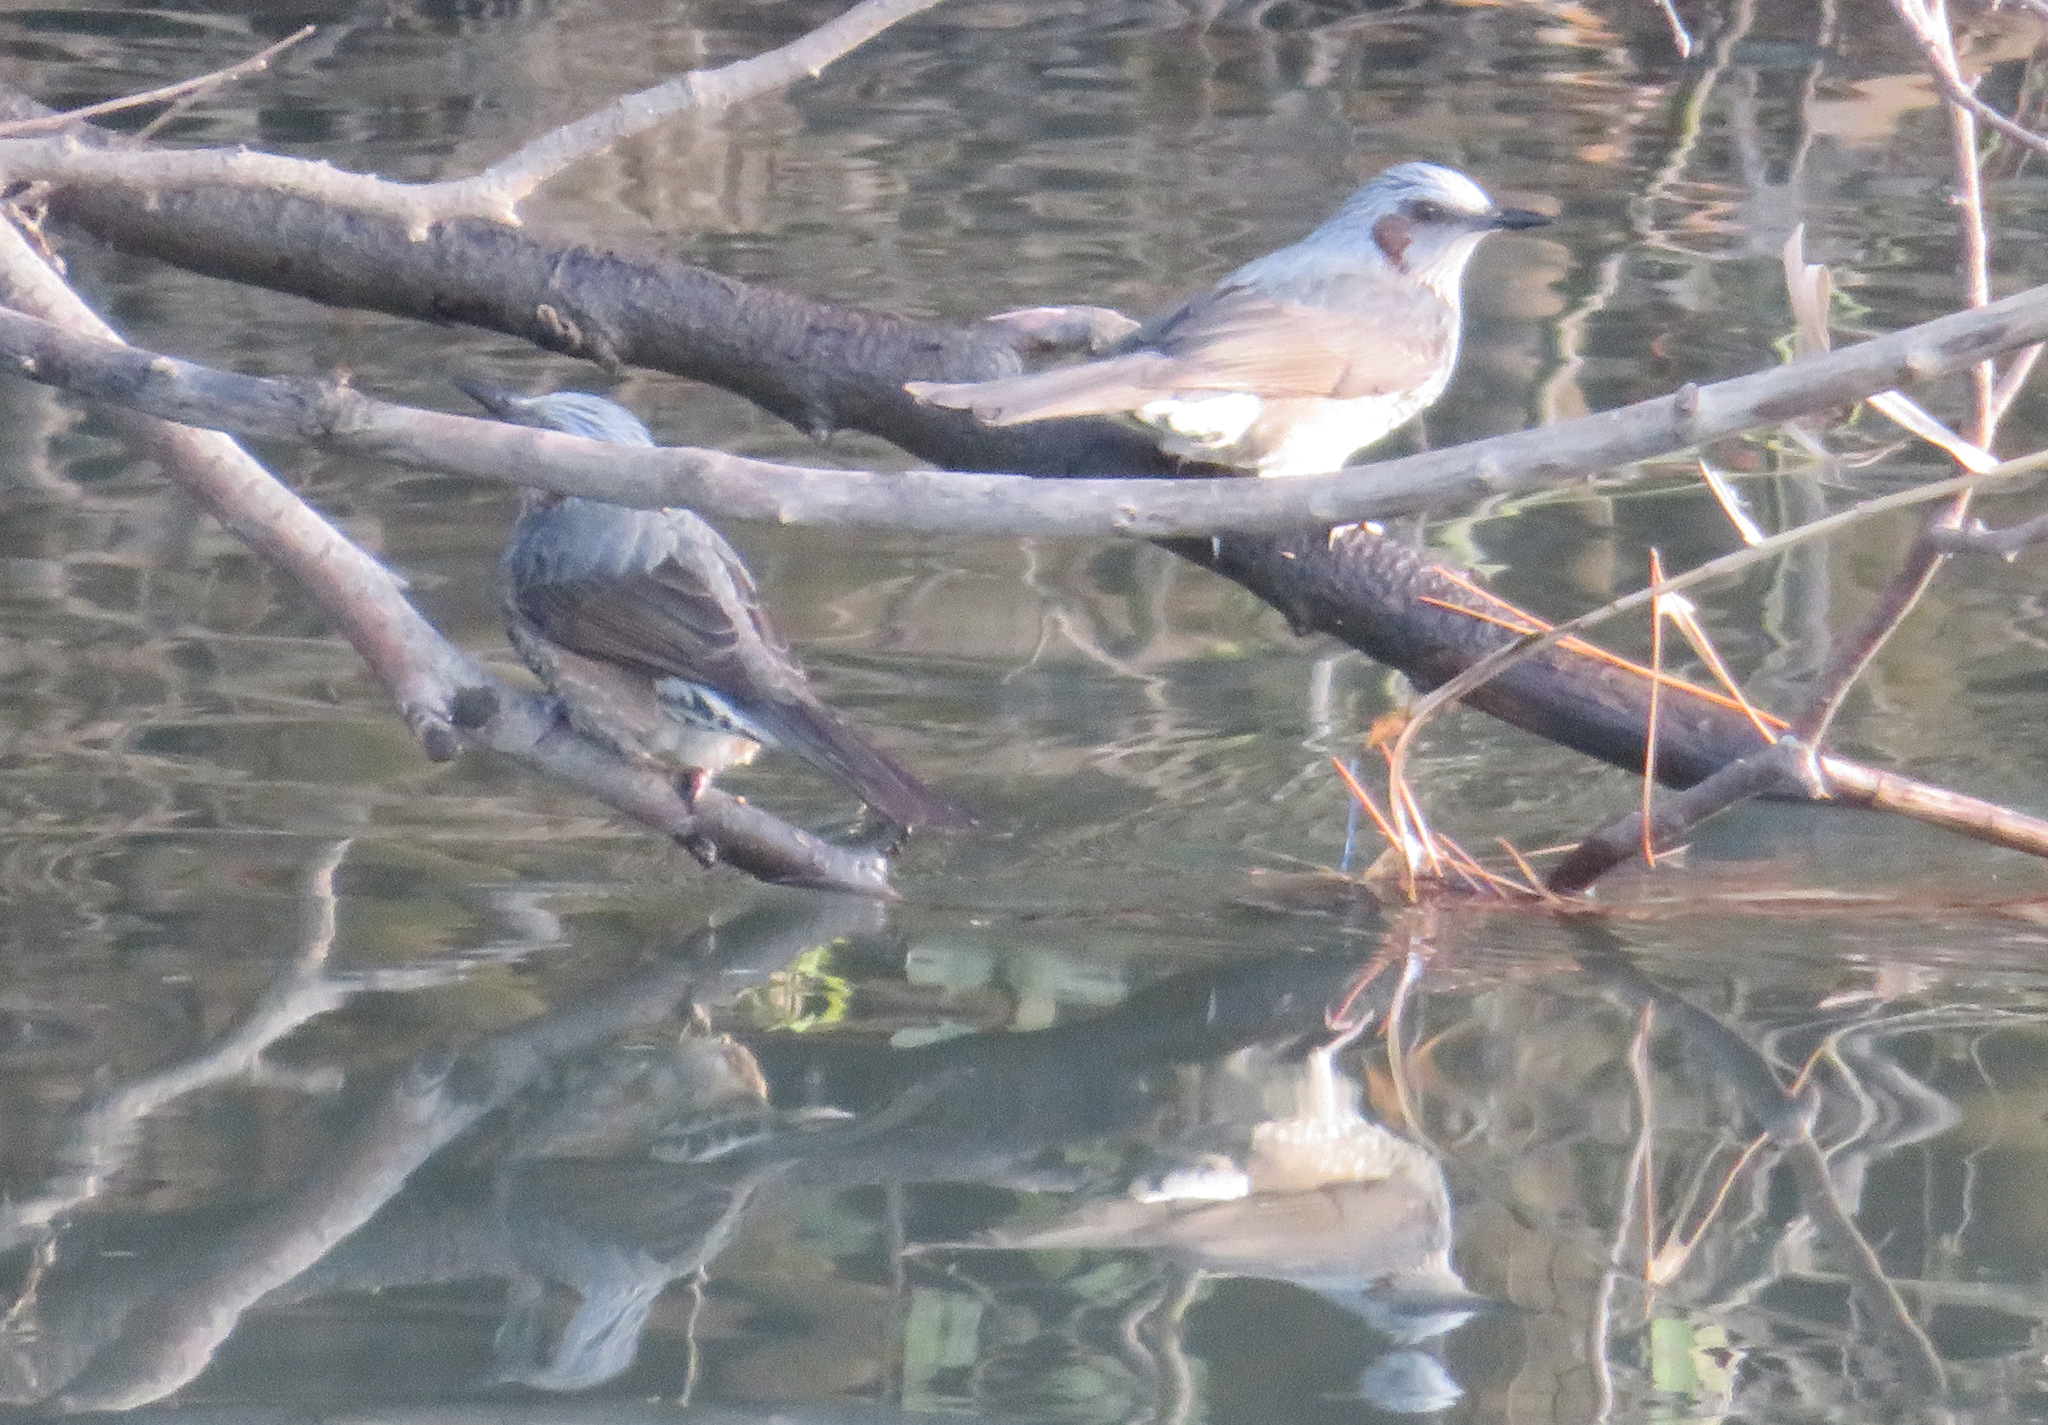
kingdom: Animalia
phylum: Chordata
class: Aves
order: Passeriformes
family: Pycnonotidae
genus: Hypsipetes
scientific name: Hypsipetes amaurotis
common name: Brown-eared bulbul
